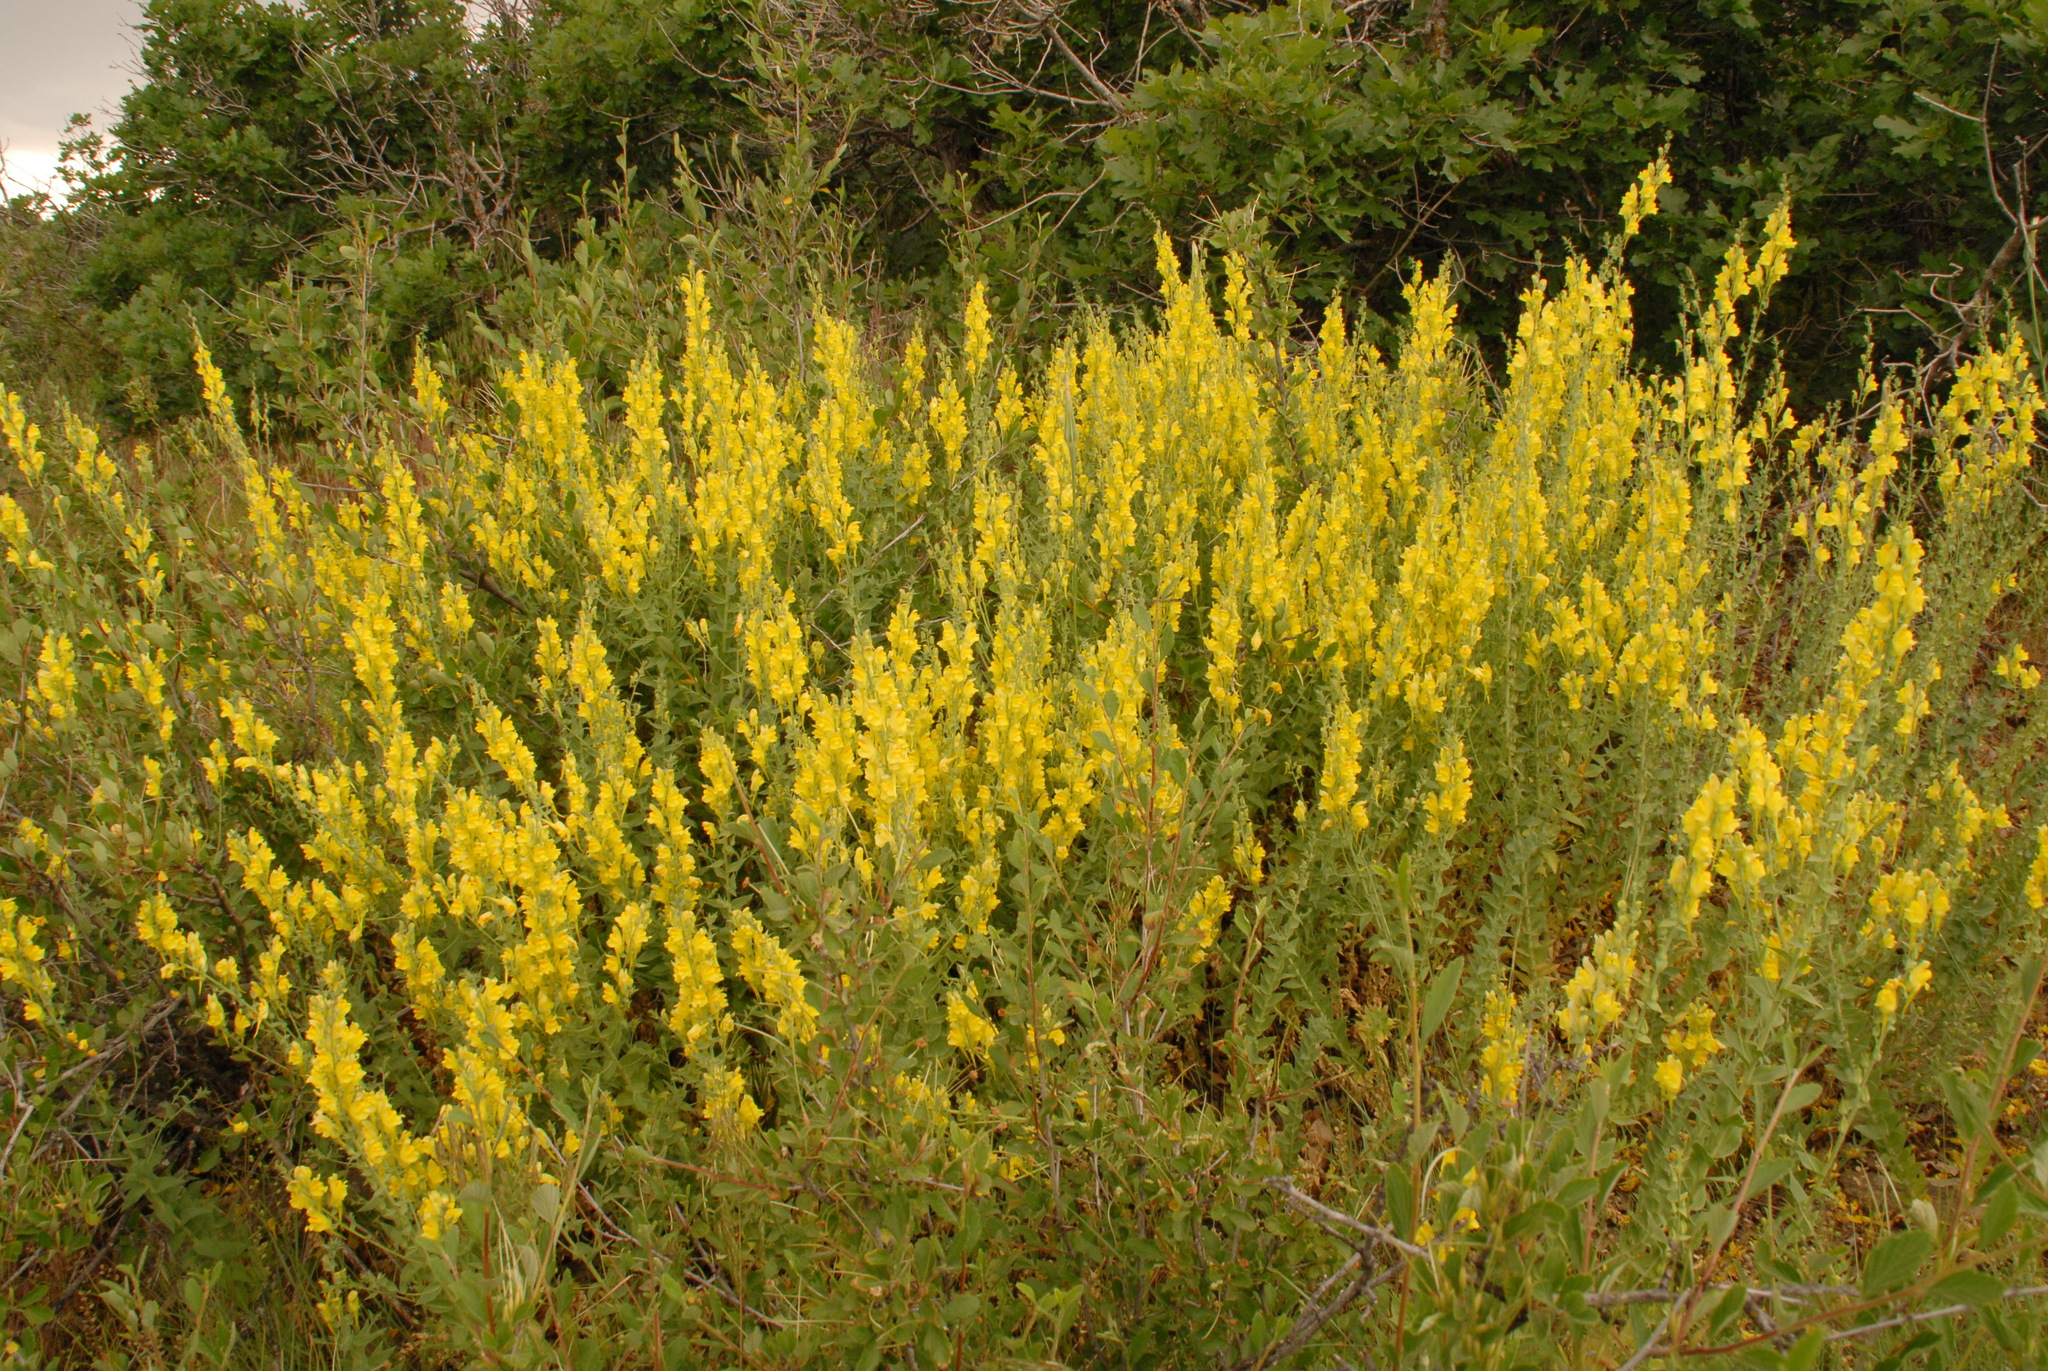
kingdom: Plantae
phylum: Tracheophyta
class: Magnoliopsida
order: Lamiales
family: Plantaginaceae
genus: Linaria
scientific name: Linaria dalmatica
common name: Dalmatian toadflax
